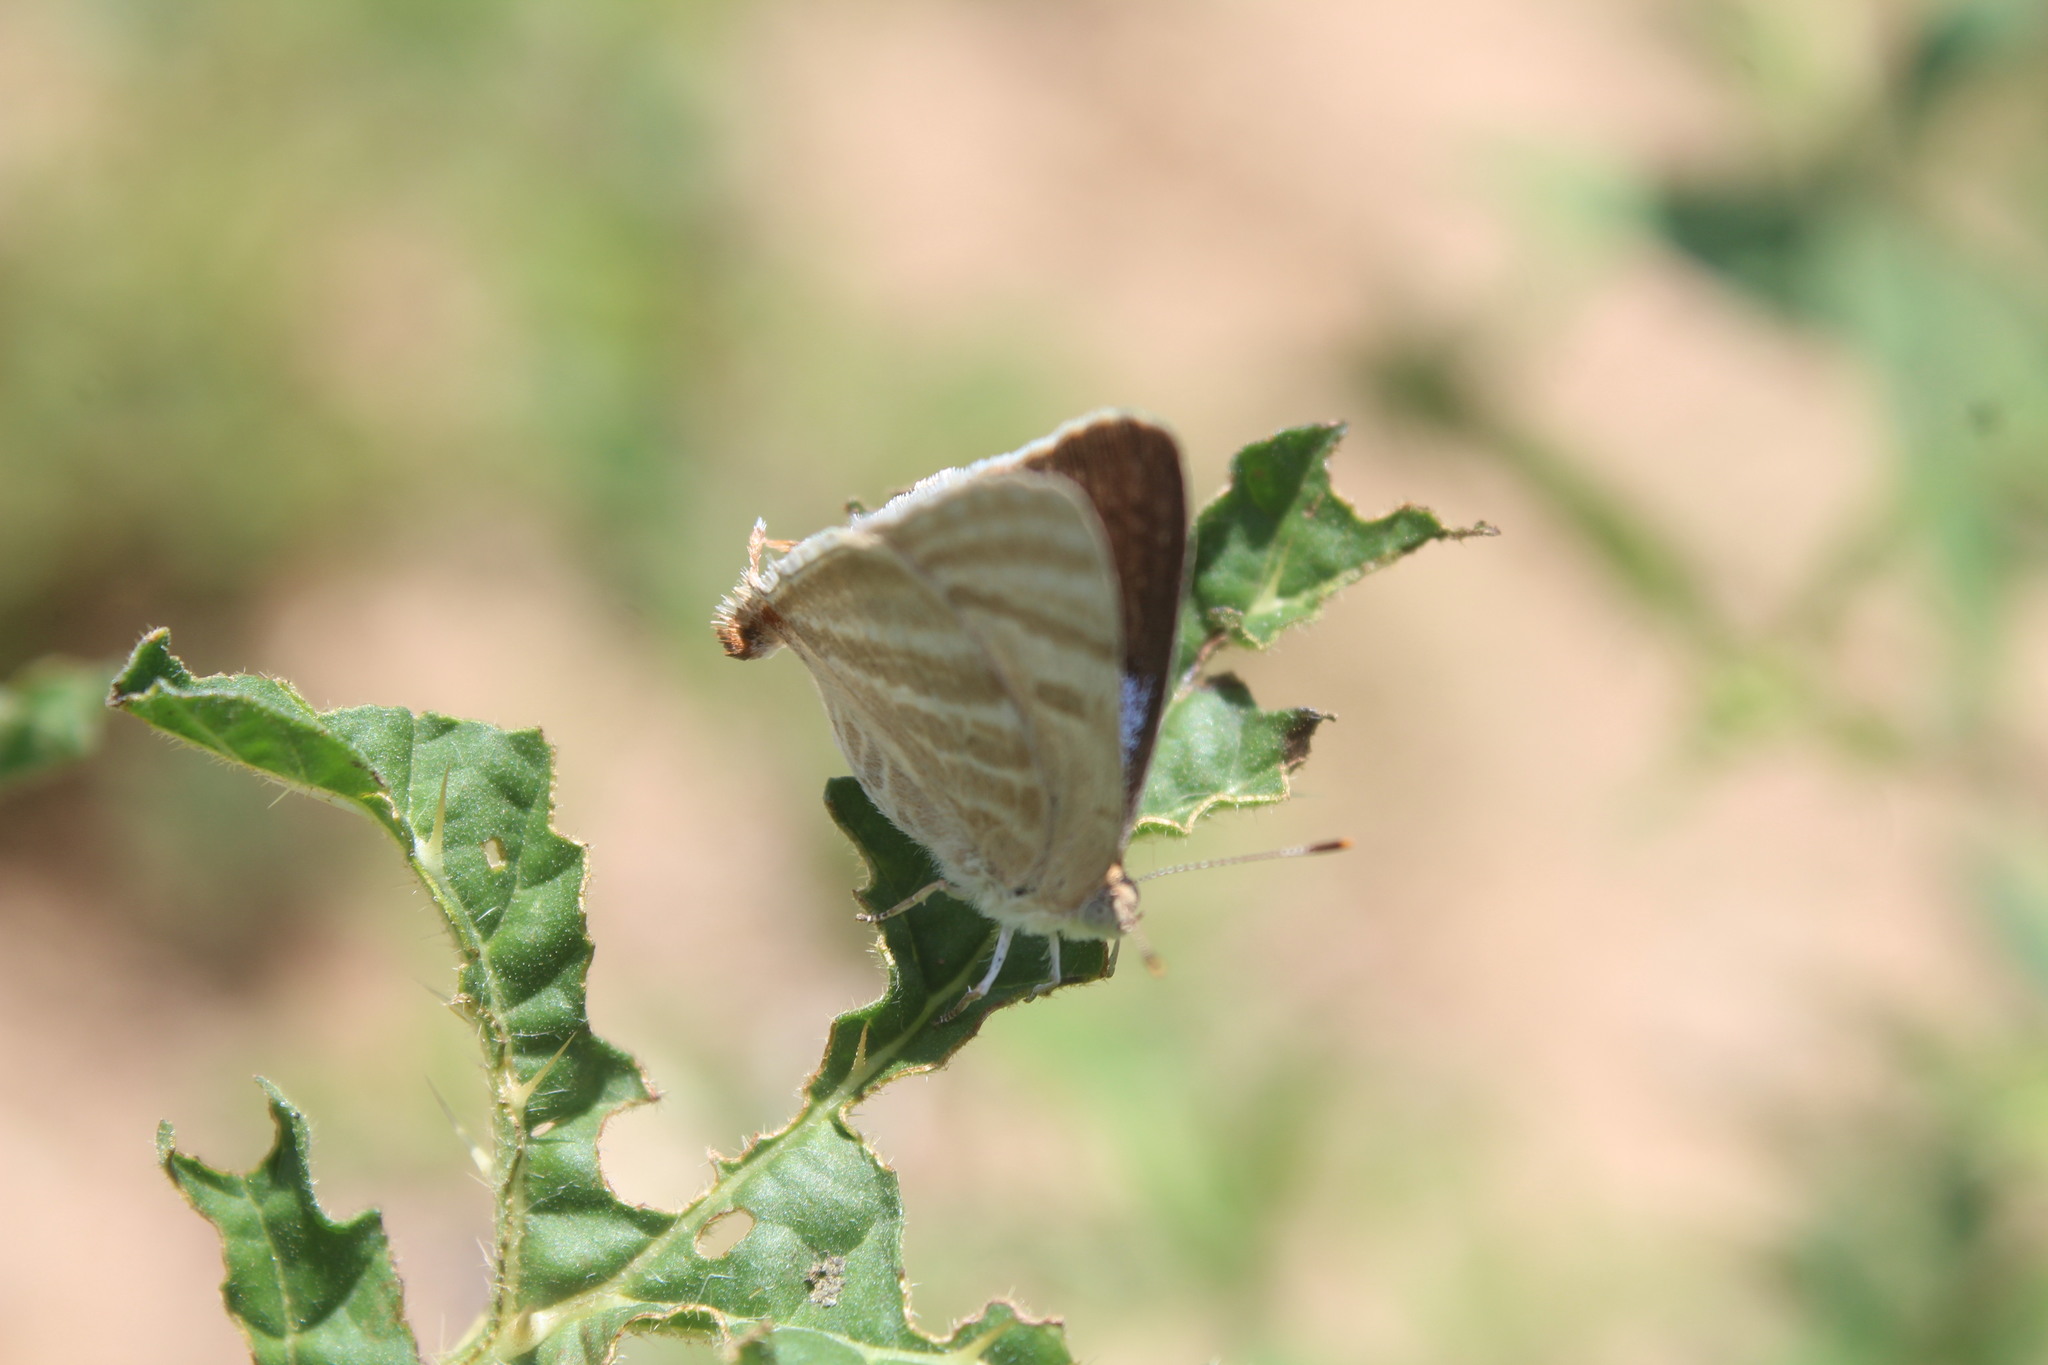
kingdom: Animalia
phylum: Arthropoda
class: Insecta
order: Lepidoptera
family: Lycaenidae
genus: Dolymorpha
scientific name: Dolymorpha jada
